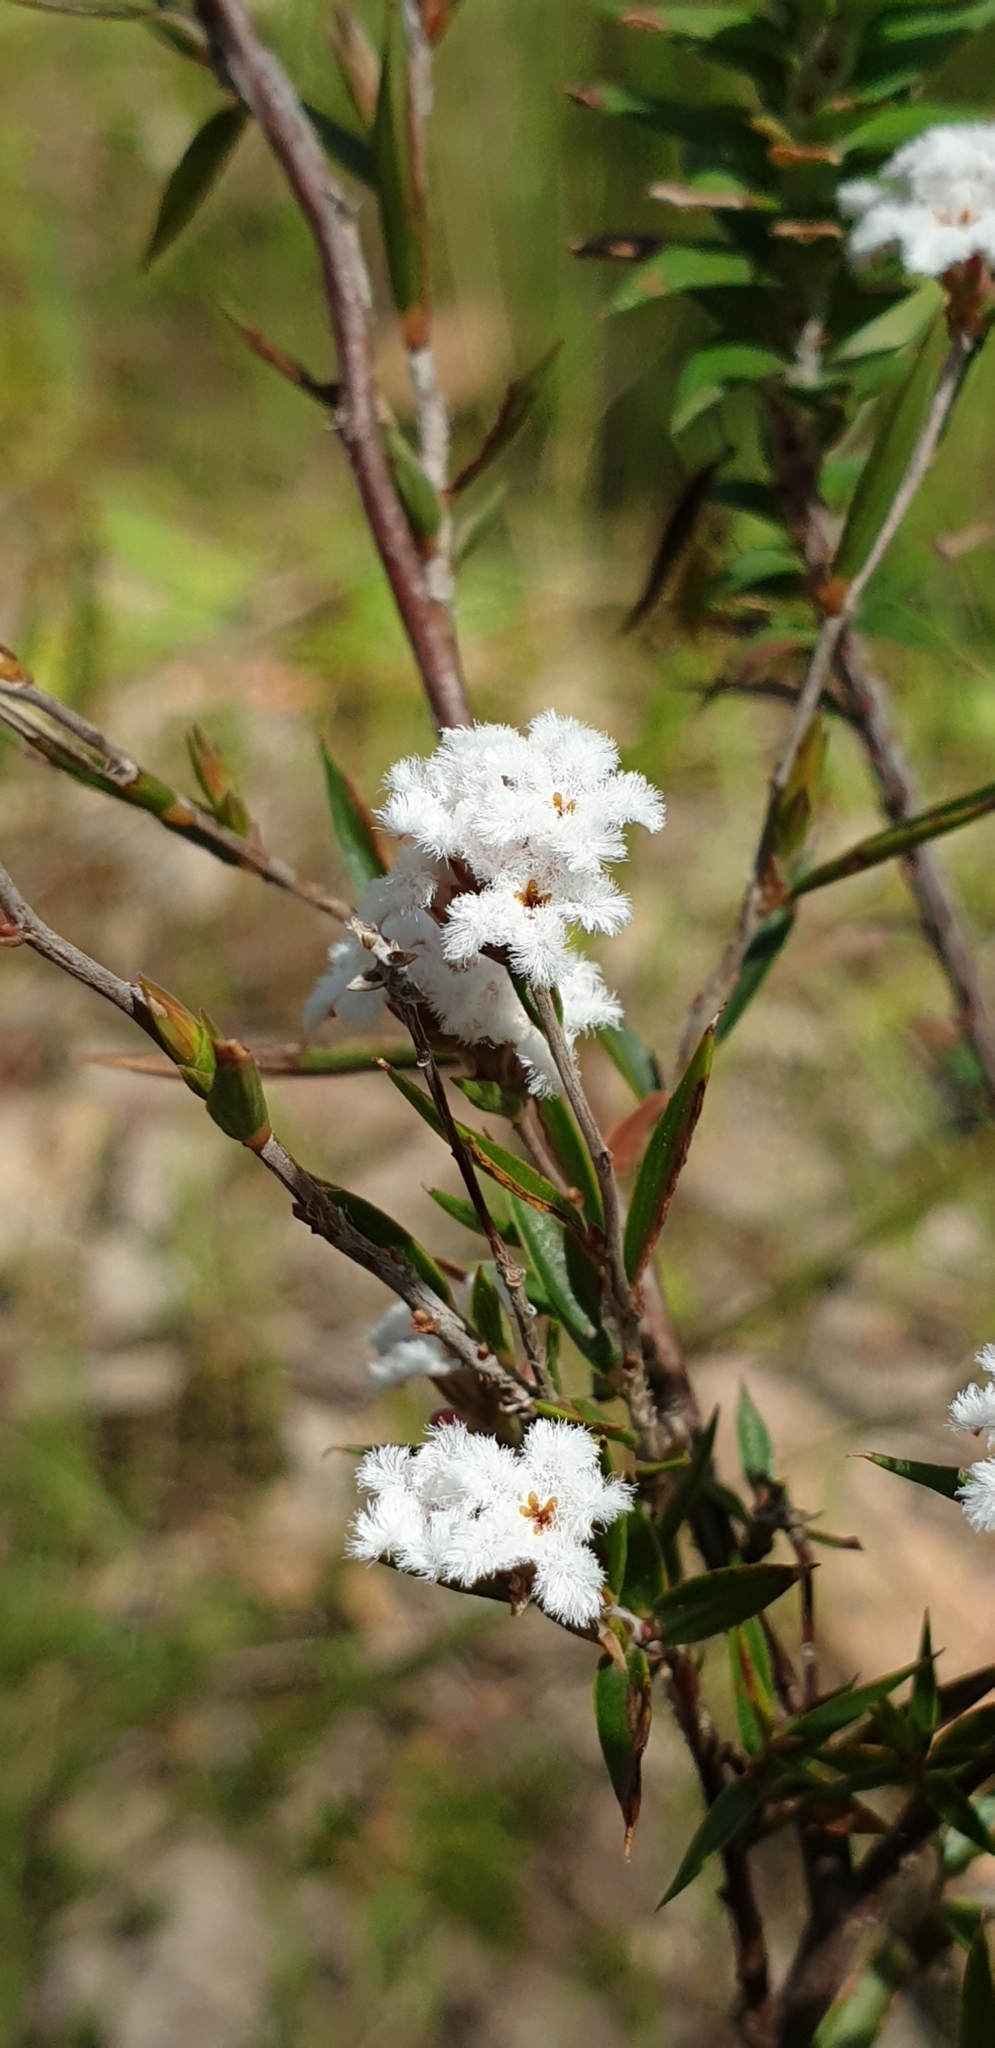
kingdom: Plantae
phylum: Tracheophyta
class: Magnoliopsida
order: Ericales
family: Ericaceae
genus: Leucopogon
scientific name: Leucopogon virgatus
